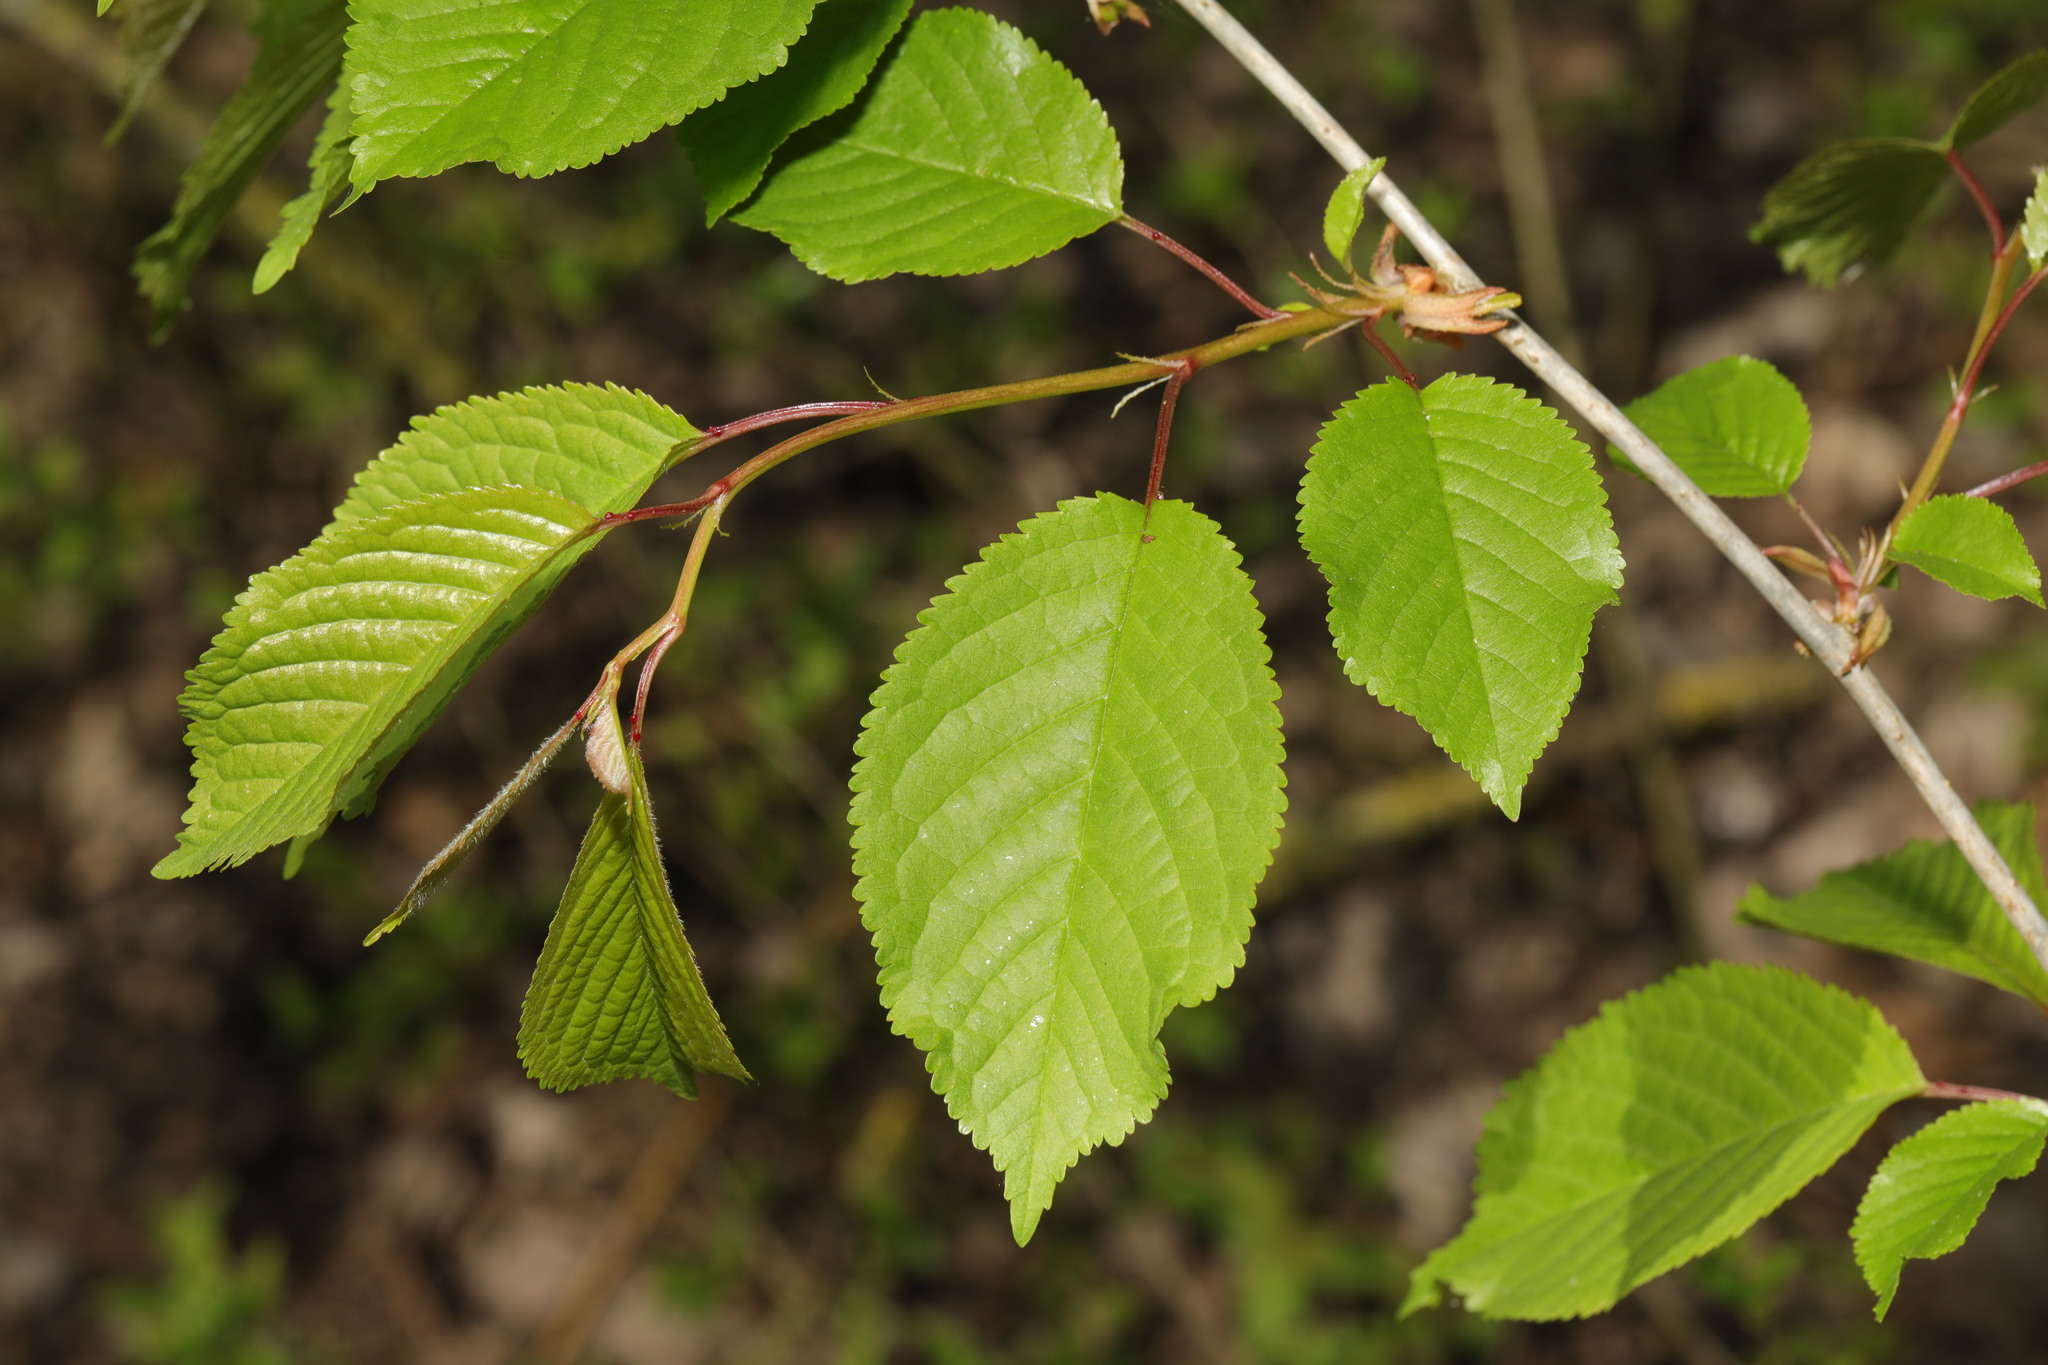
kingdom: Plantae
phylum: Tracheophyta
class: Magnoliopsida
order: Rosales
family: Rosaceae
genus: Prunus
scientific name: Prunus avium
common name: Sweet cherry
